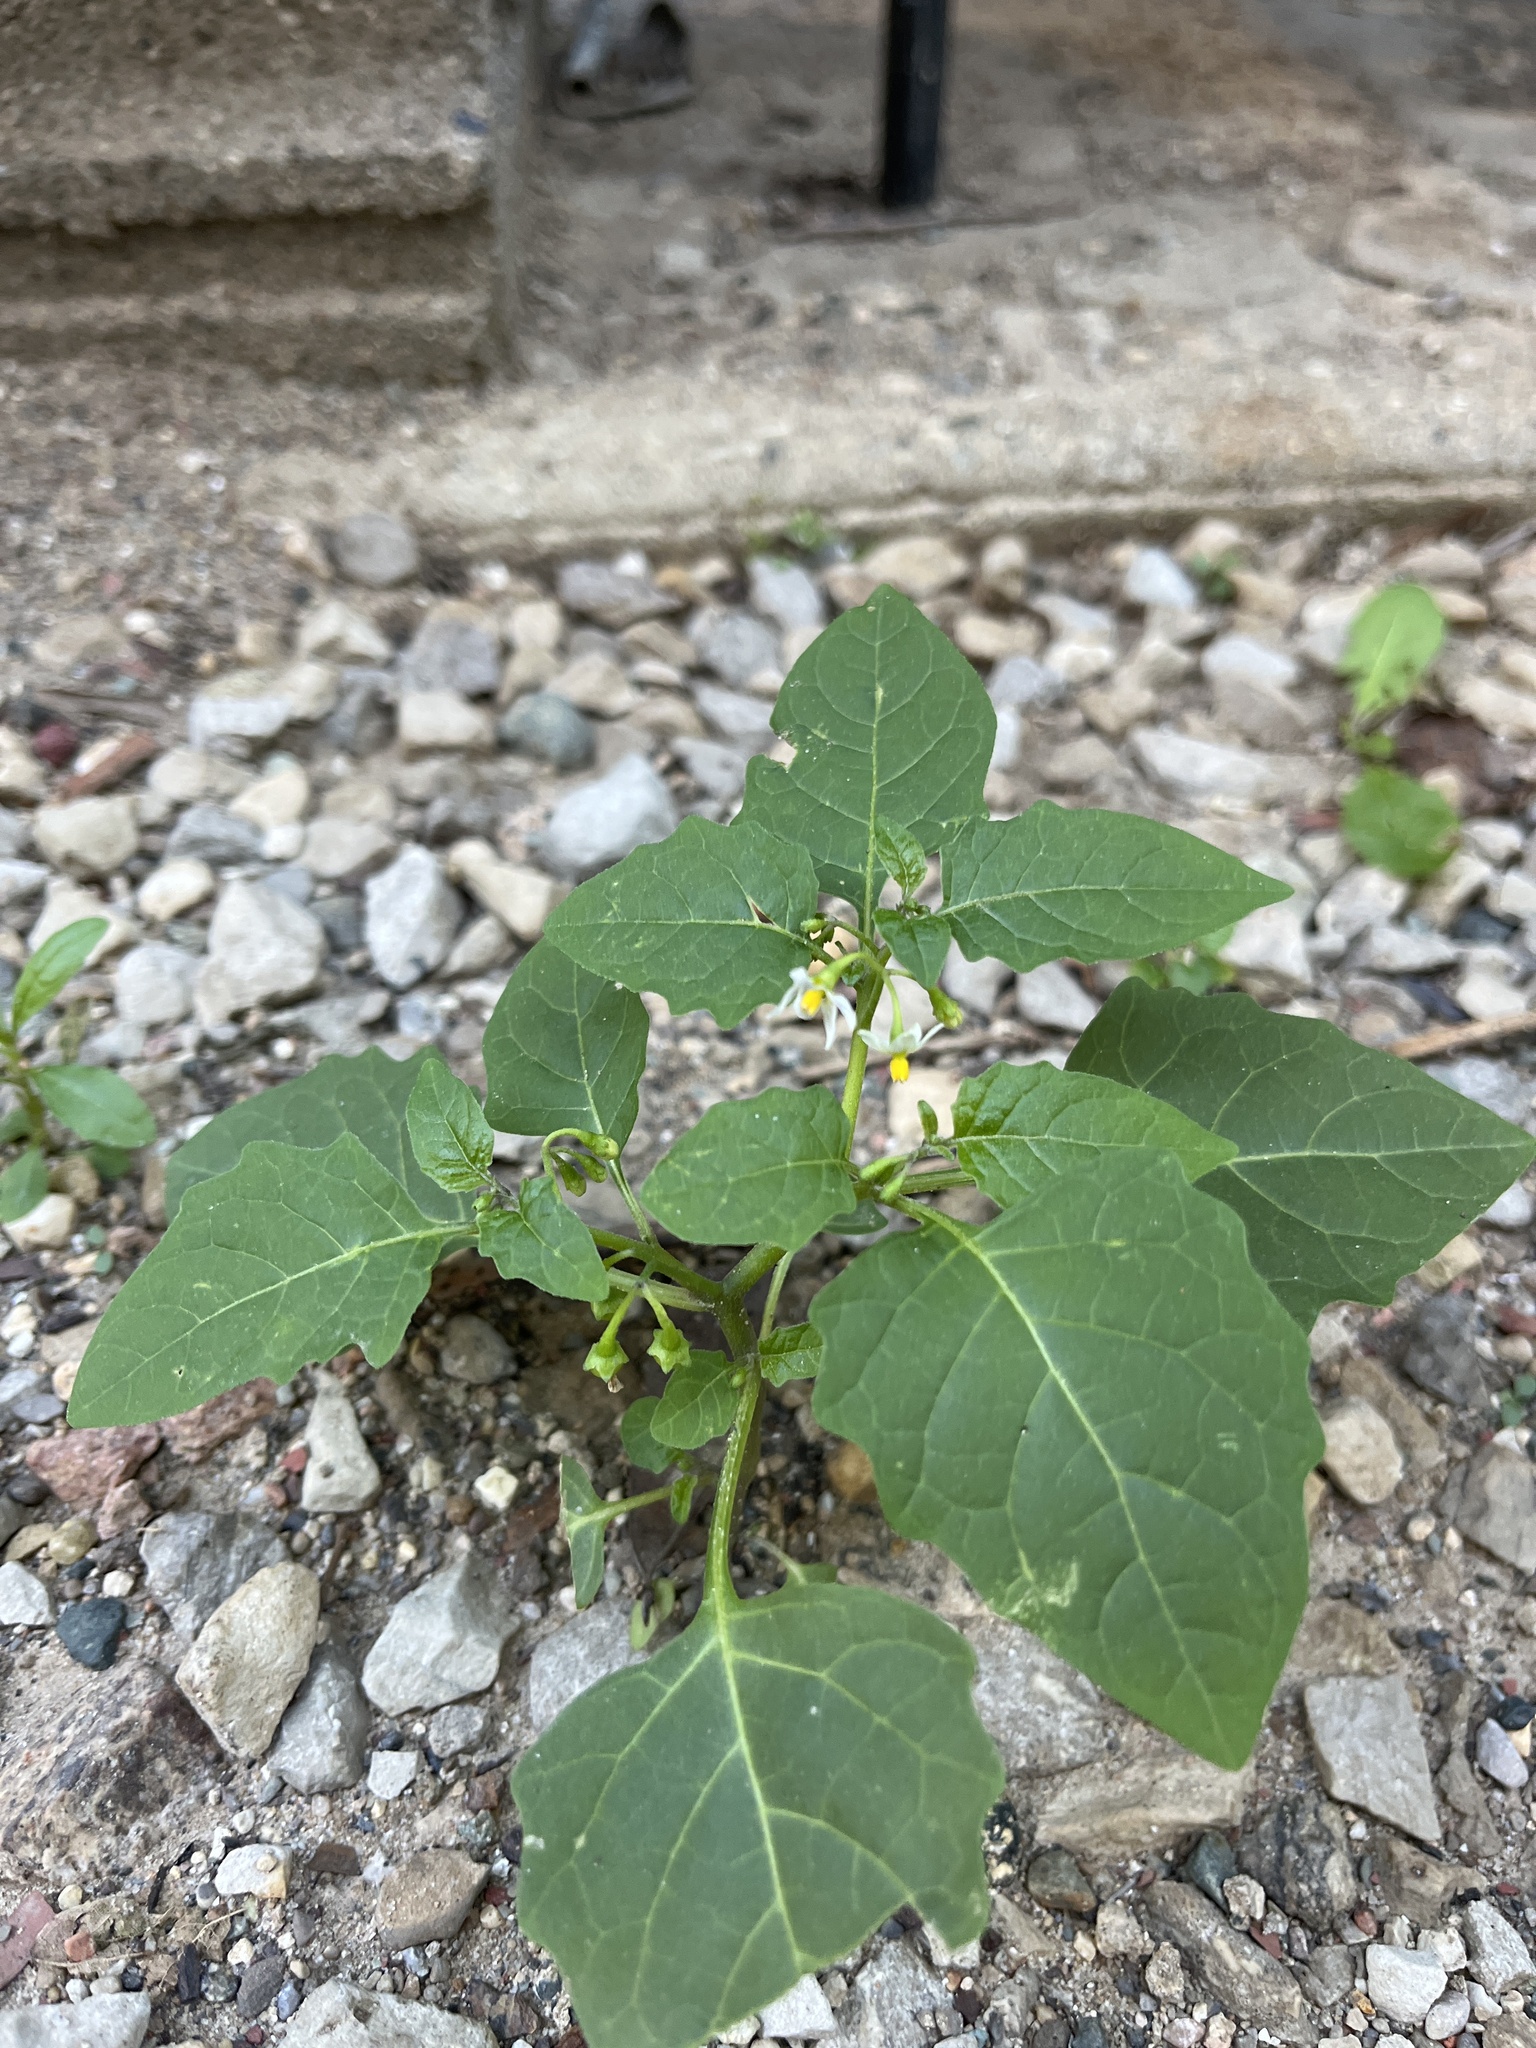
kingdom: Plantae
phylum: Tracheophyta
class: Magnoliopsida
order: Solanales
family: Solanaceae
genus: Solanum
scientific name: Solanum emulans
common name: Eastern black nightshade
